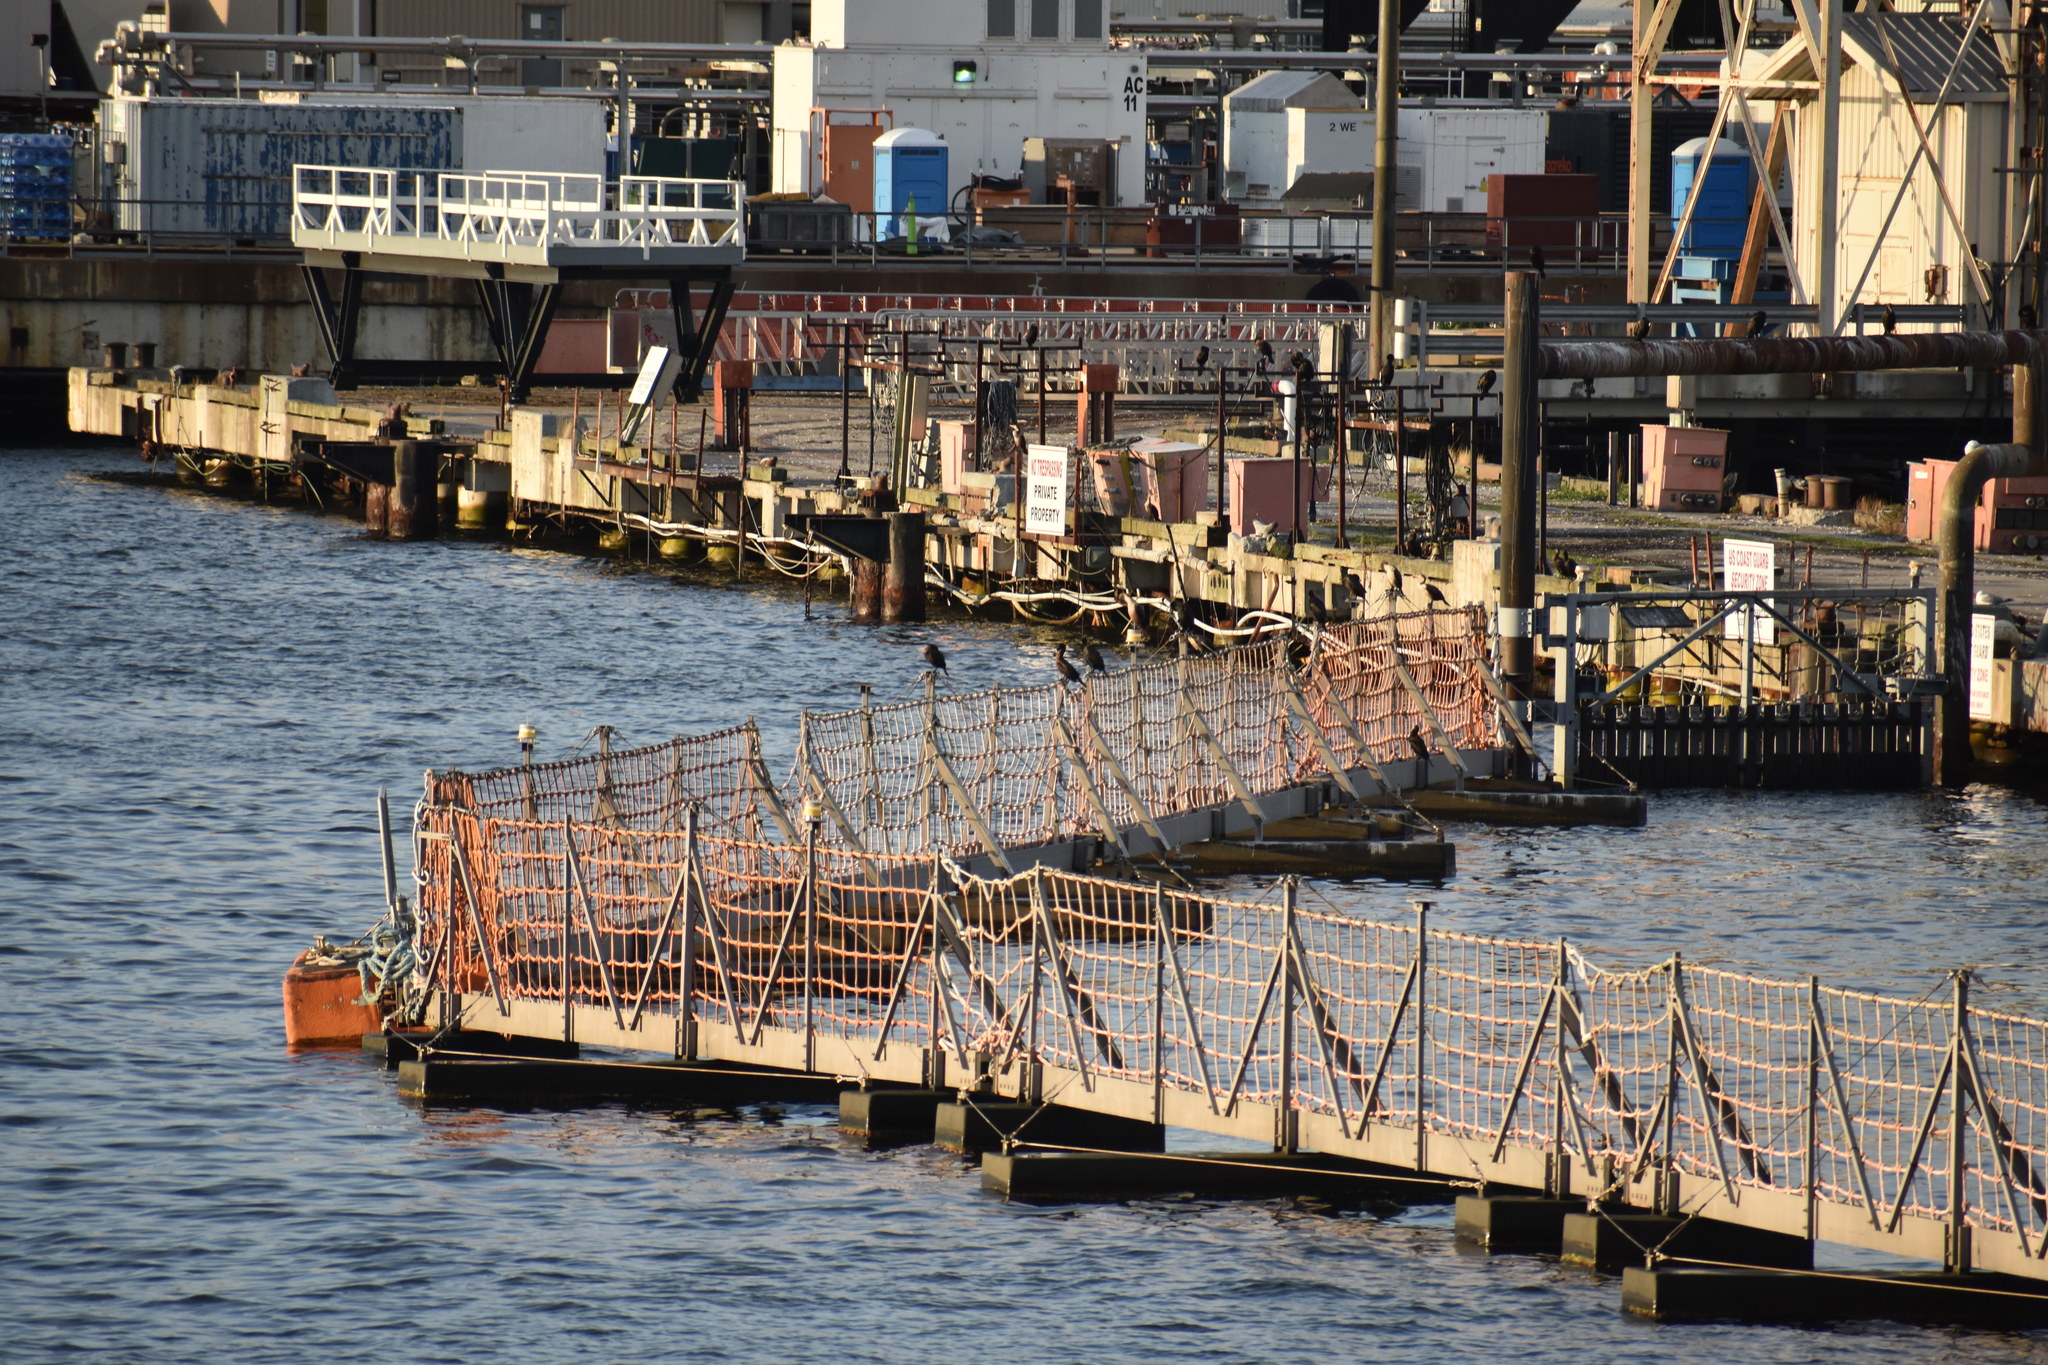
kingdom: Animalia
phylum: Chordata
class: Aves
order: Suliformes
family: Phalacrocoracidae
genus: Phalacrocorax
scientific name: Phalacrocorax auritus
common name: Double-crested cormorant
